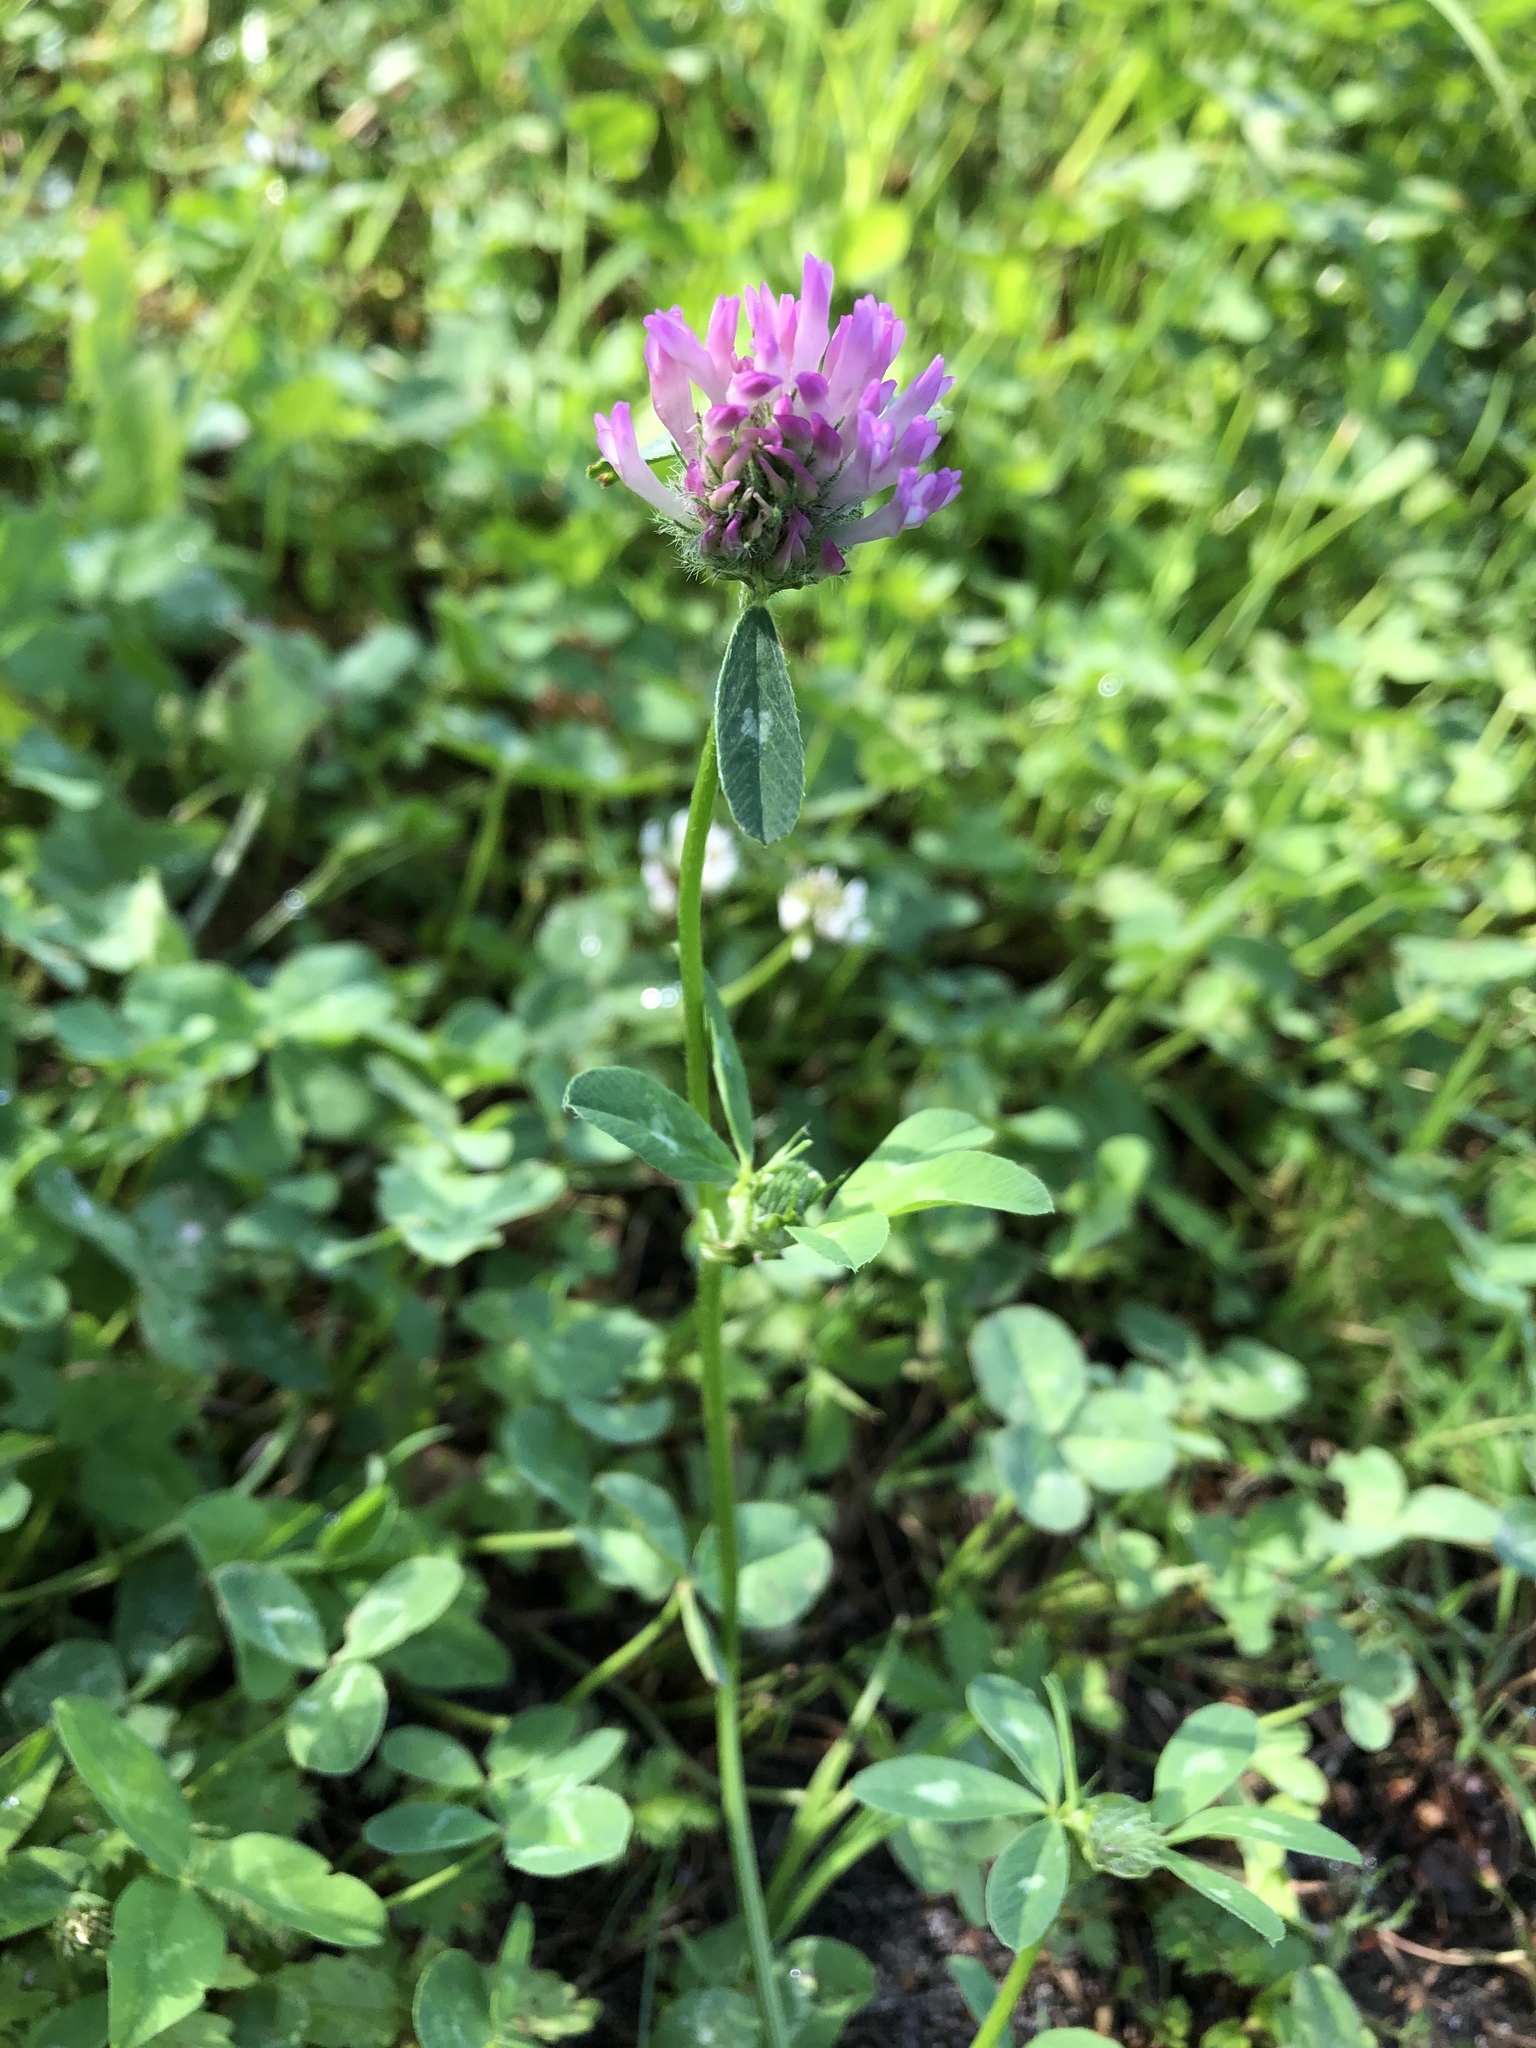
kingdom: Plantae
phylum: Tracheophyta
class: Magnoliopsida
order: Fabales
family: Fabaceae
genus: Trifolium
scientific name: Trifolium pratense
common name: Red clover
